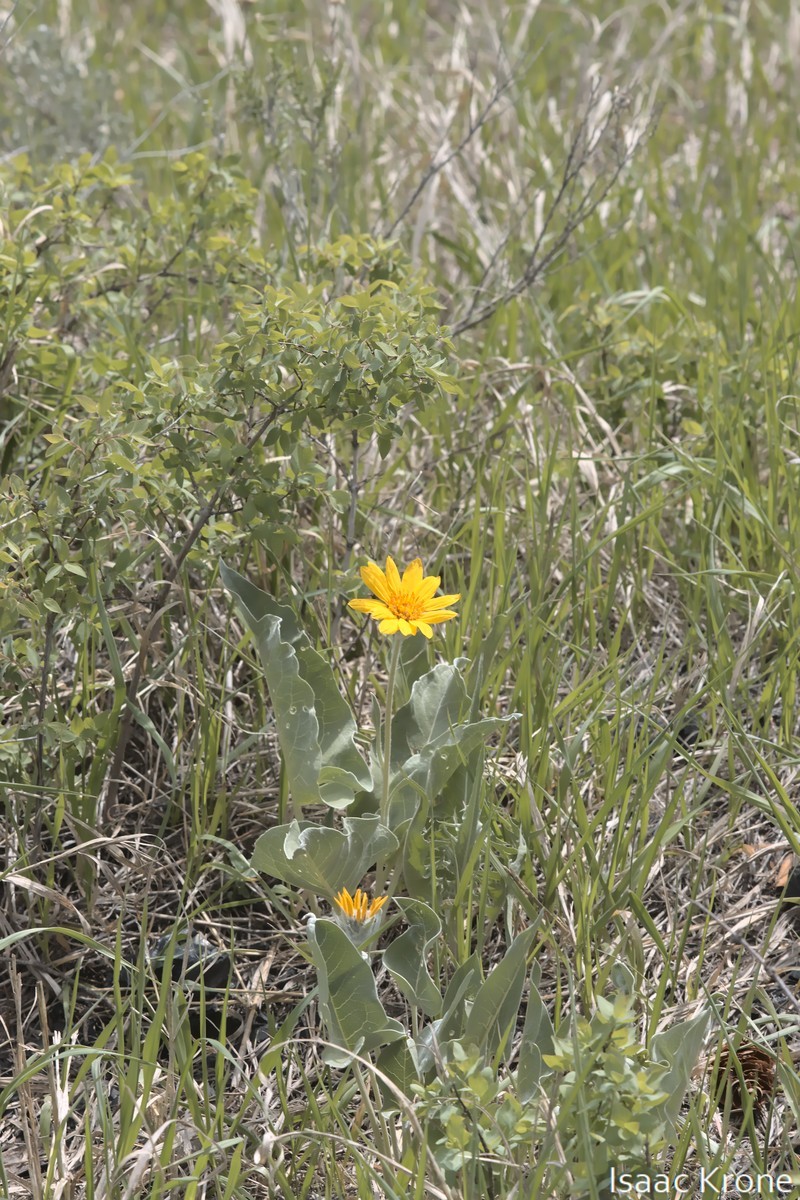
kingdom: Plantae
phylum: Tracheophyta
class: Magnoliopsida
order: Asterales
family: Asteraceae
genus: Wyethia
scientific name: Wyethia sagittata
